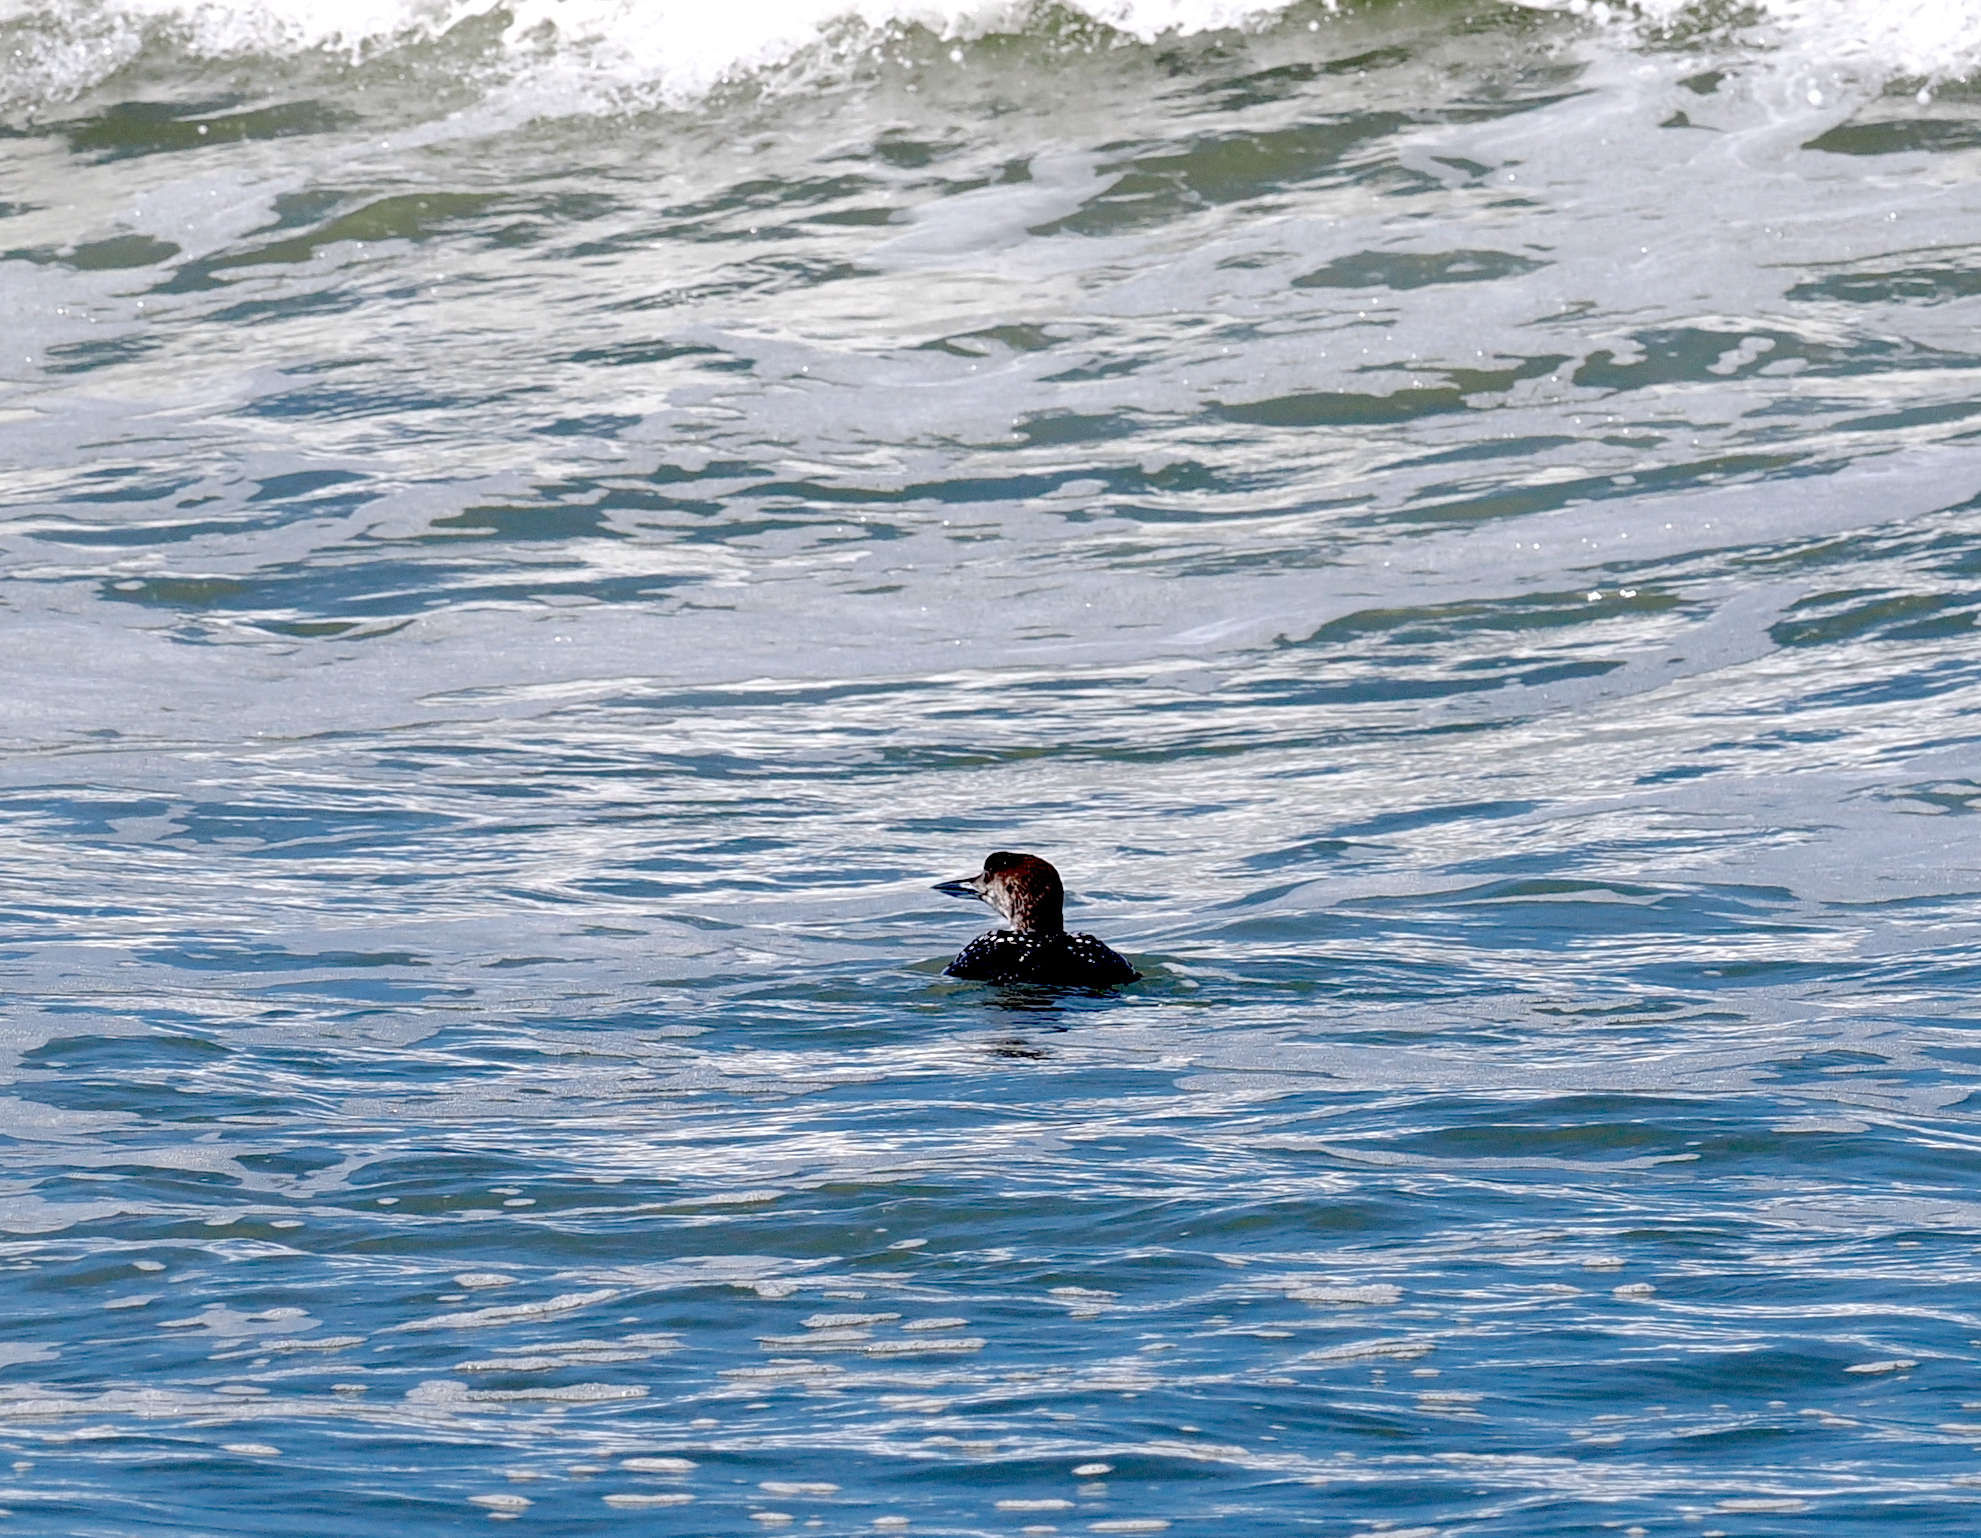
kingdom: Animalia
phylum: Chordata
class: Aves
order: Gaviiformes
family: Gaviidae
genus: Gavia
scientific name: Gavia immer
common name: Common loon
